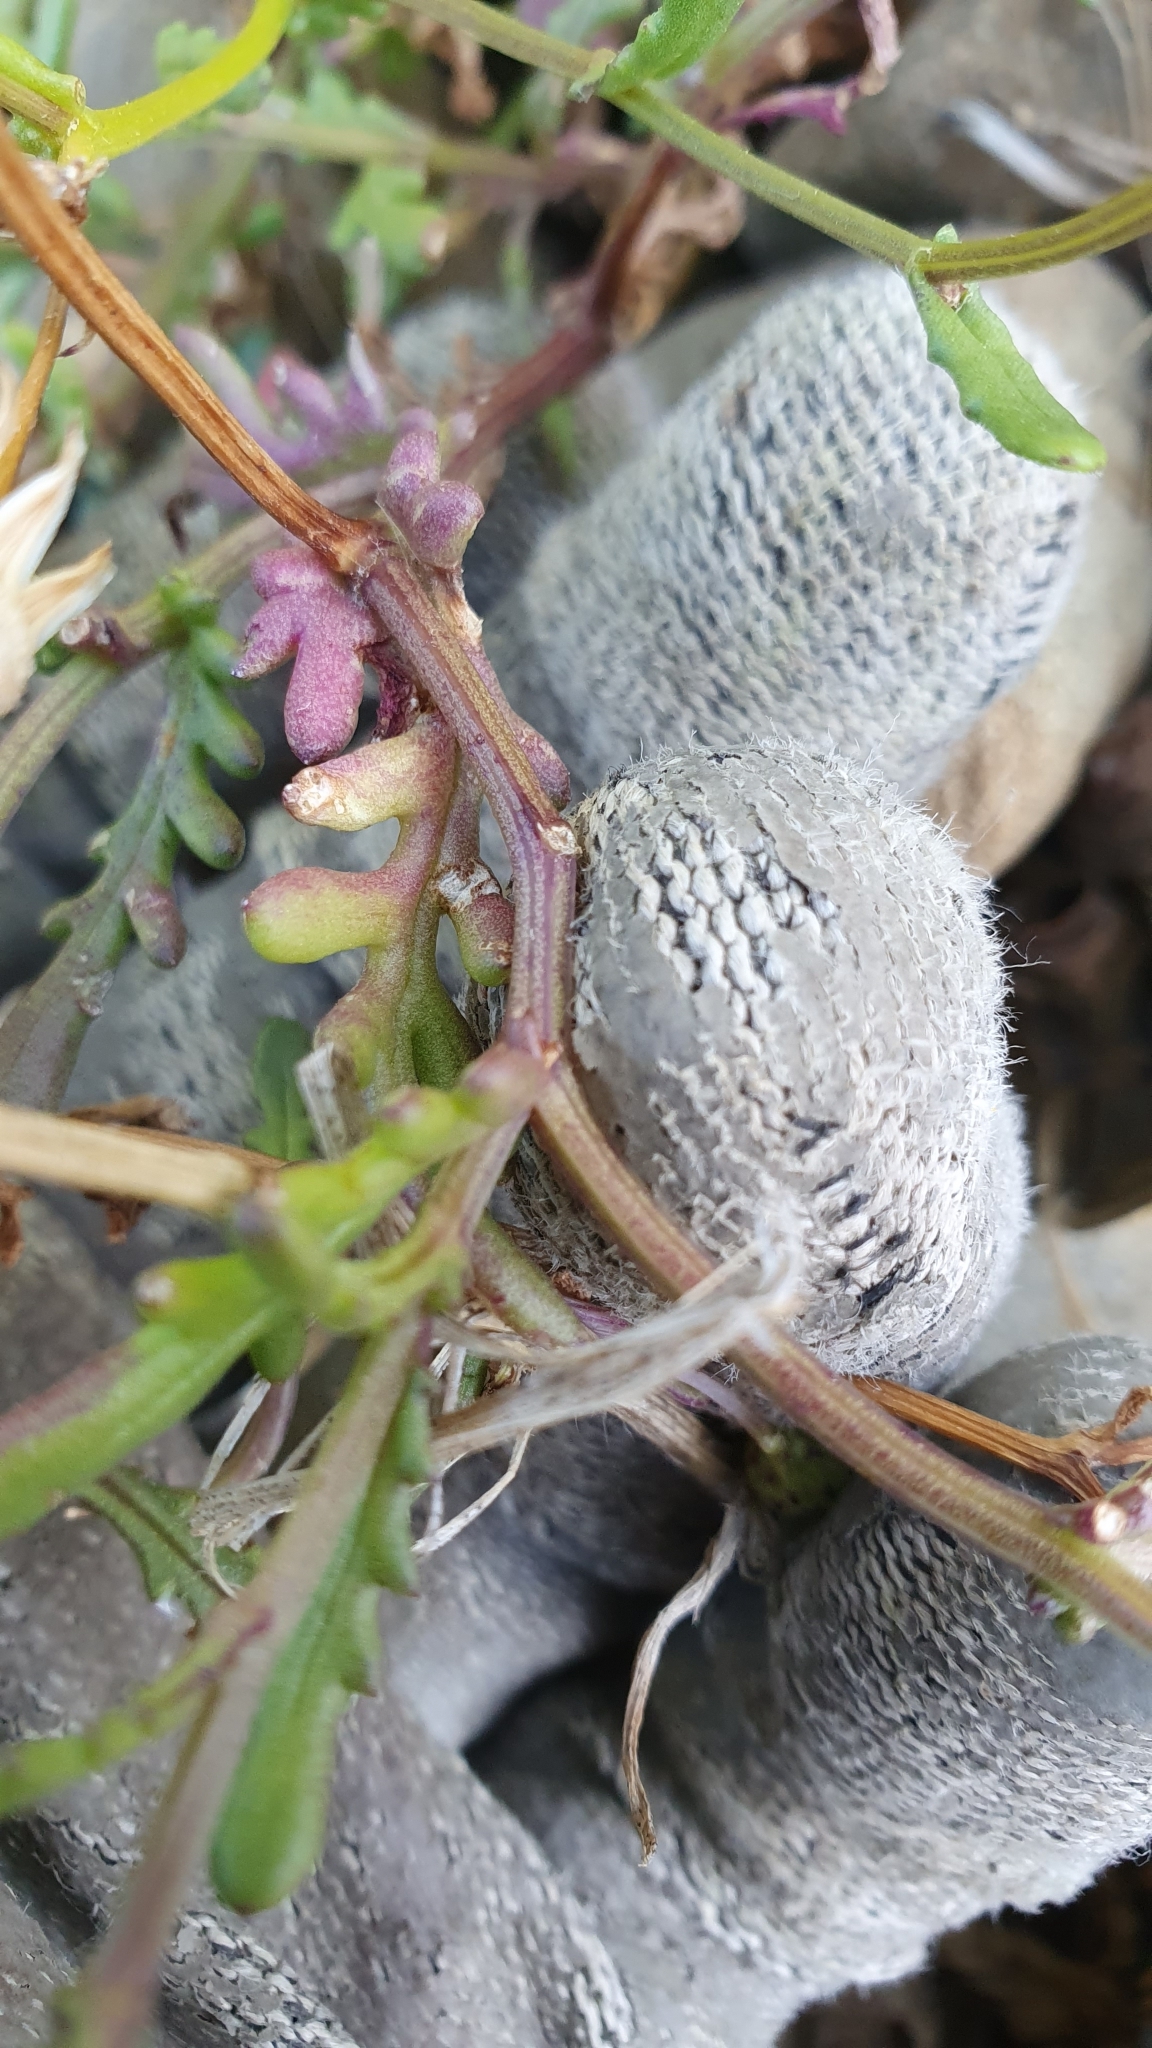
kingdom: Plantae
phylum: Tracheophyta
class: Magnoliopsida
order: Asterales
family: Asteraceae
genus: Senecio
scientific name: Senecio lautus
